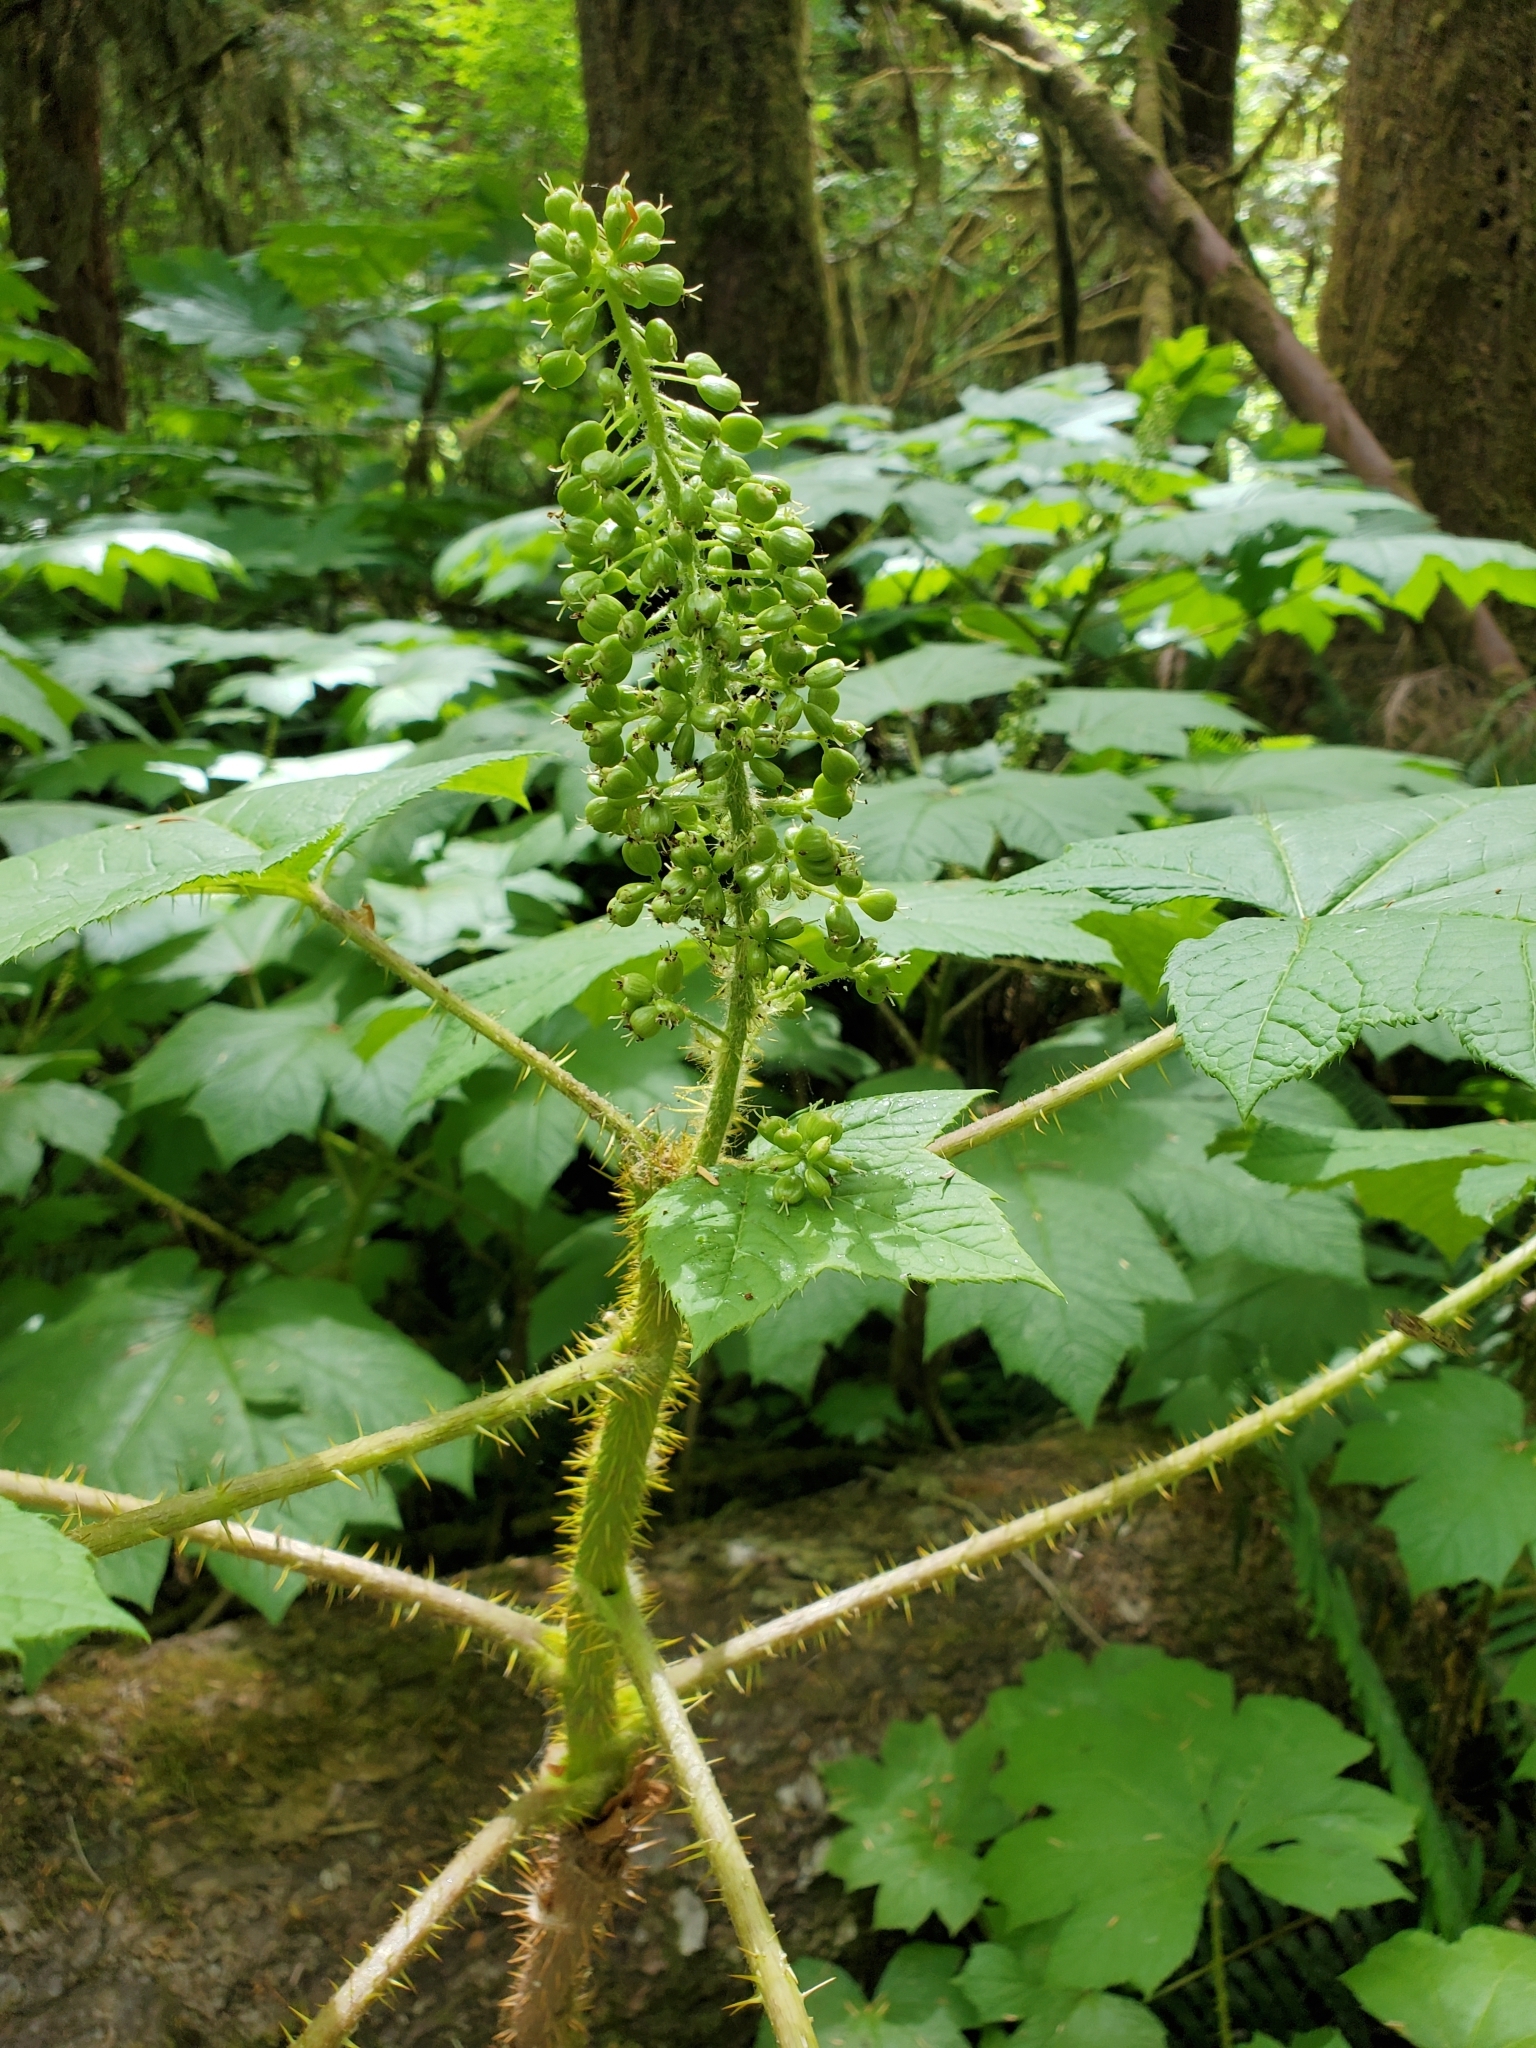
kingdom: Plantae
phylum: Tracheophyta
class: Magnoliopsida
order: Apiales
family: Araliaceae
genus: Oplopanax
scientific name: Oplopanax horridus
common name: Devil's walking-stick
